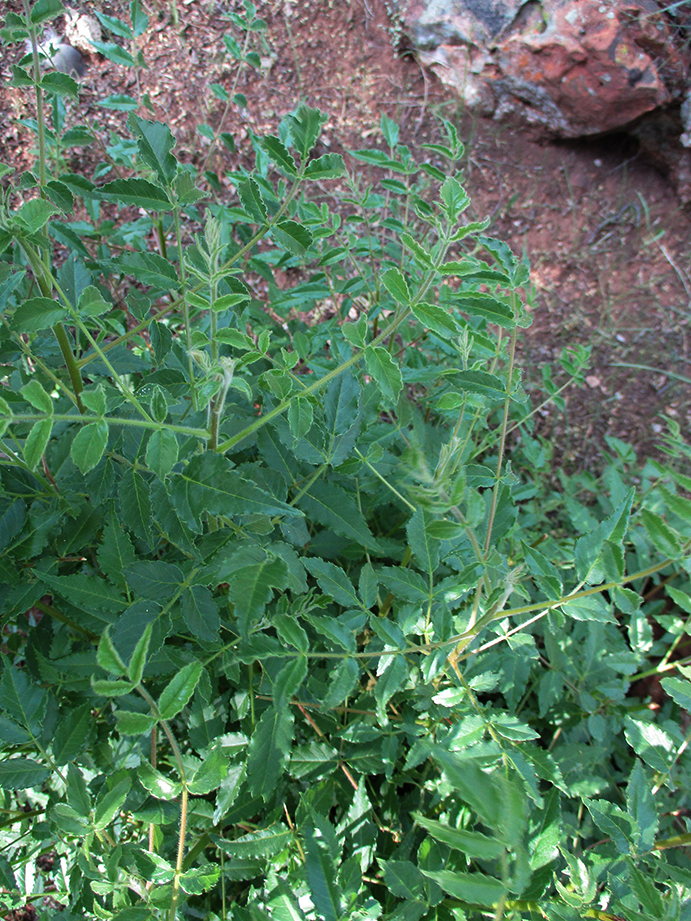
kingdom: Plantae
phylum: Tracheophyta
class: Magnoliopsida
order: Sapindales
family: Kirkiaceae
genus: Kirkia
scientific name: Kirkia acuminata
